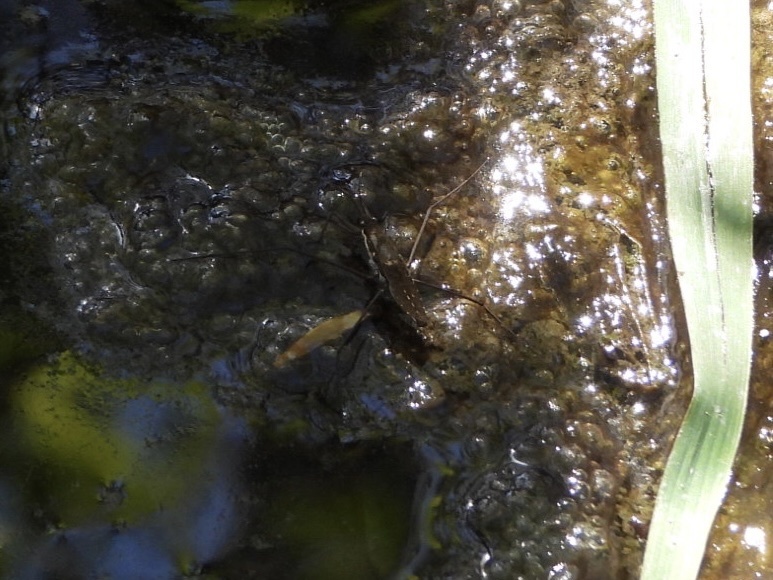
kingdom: Animalia
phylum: Arthropoda
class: Insecta
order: Hemiptera
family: Gerridae
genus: Aquarius
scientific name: Aquarius remigis
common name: Common water strider
